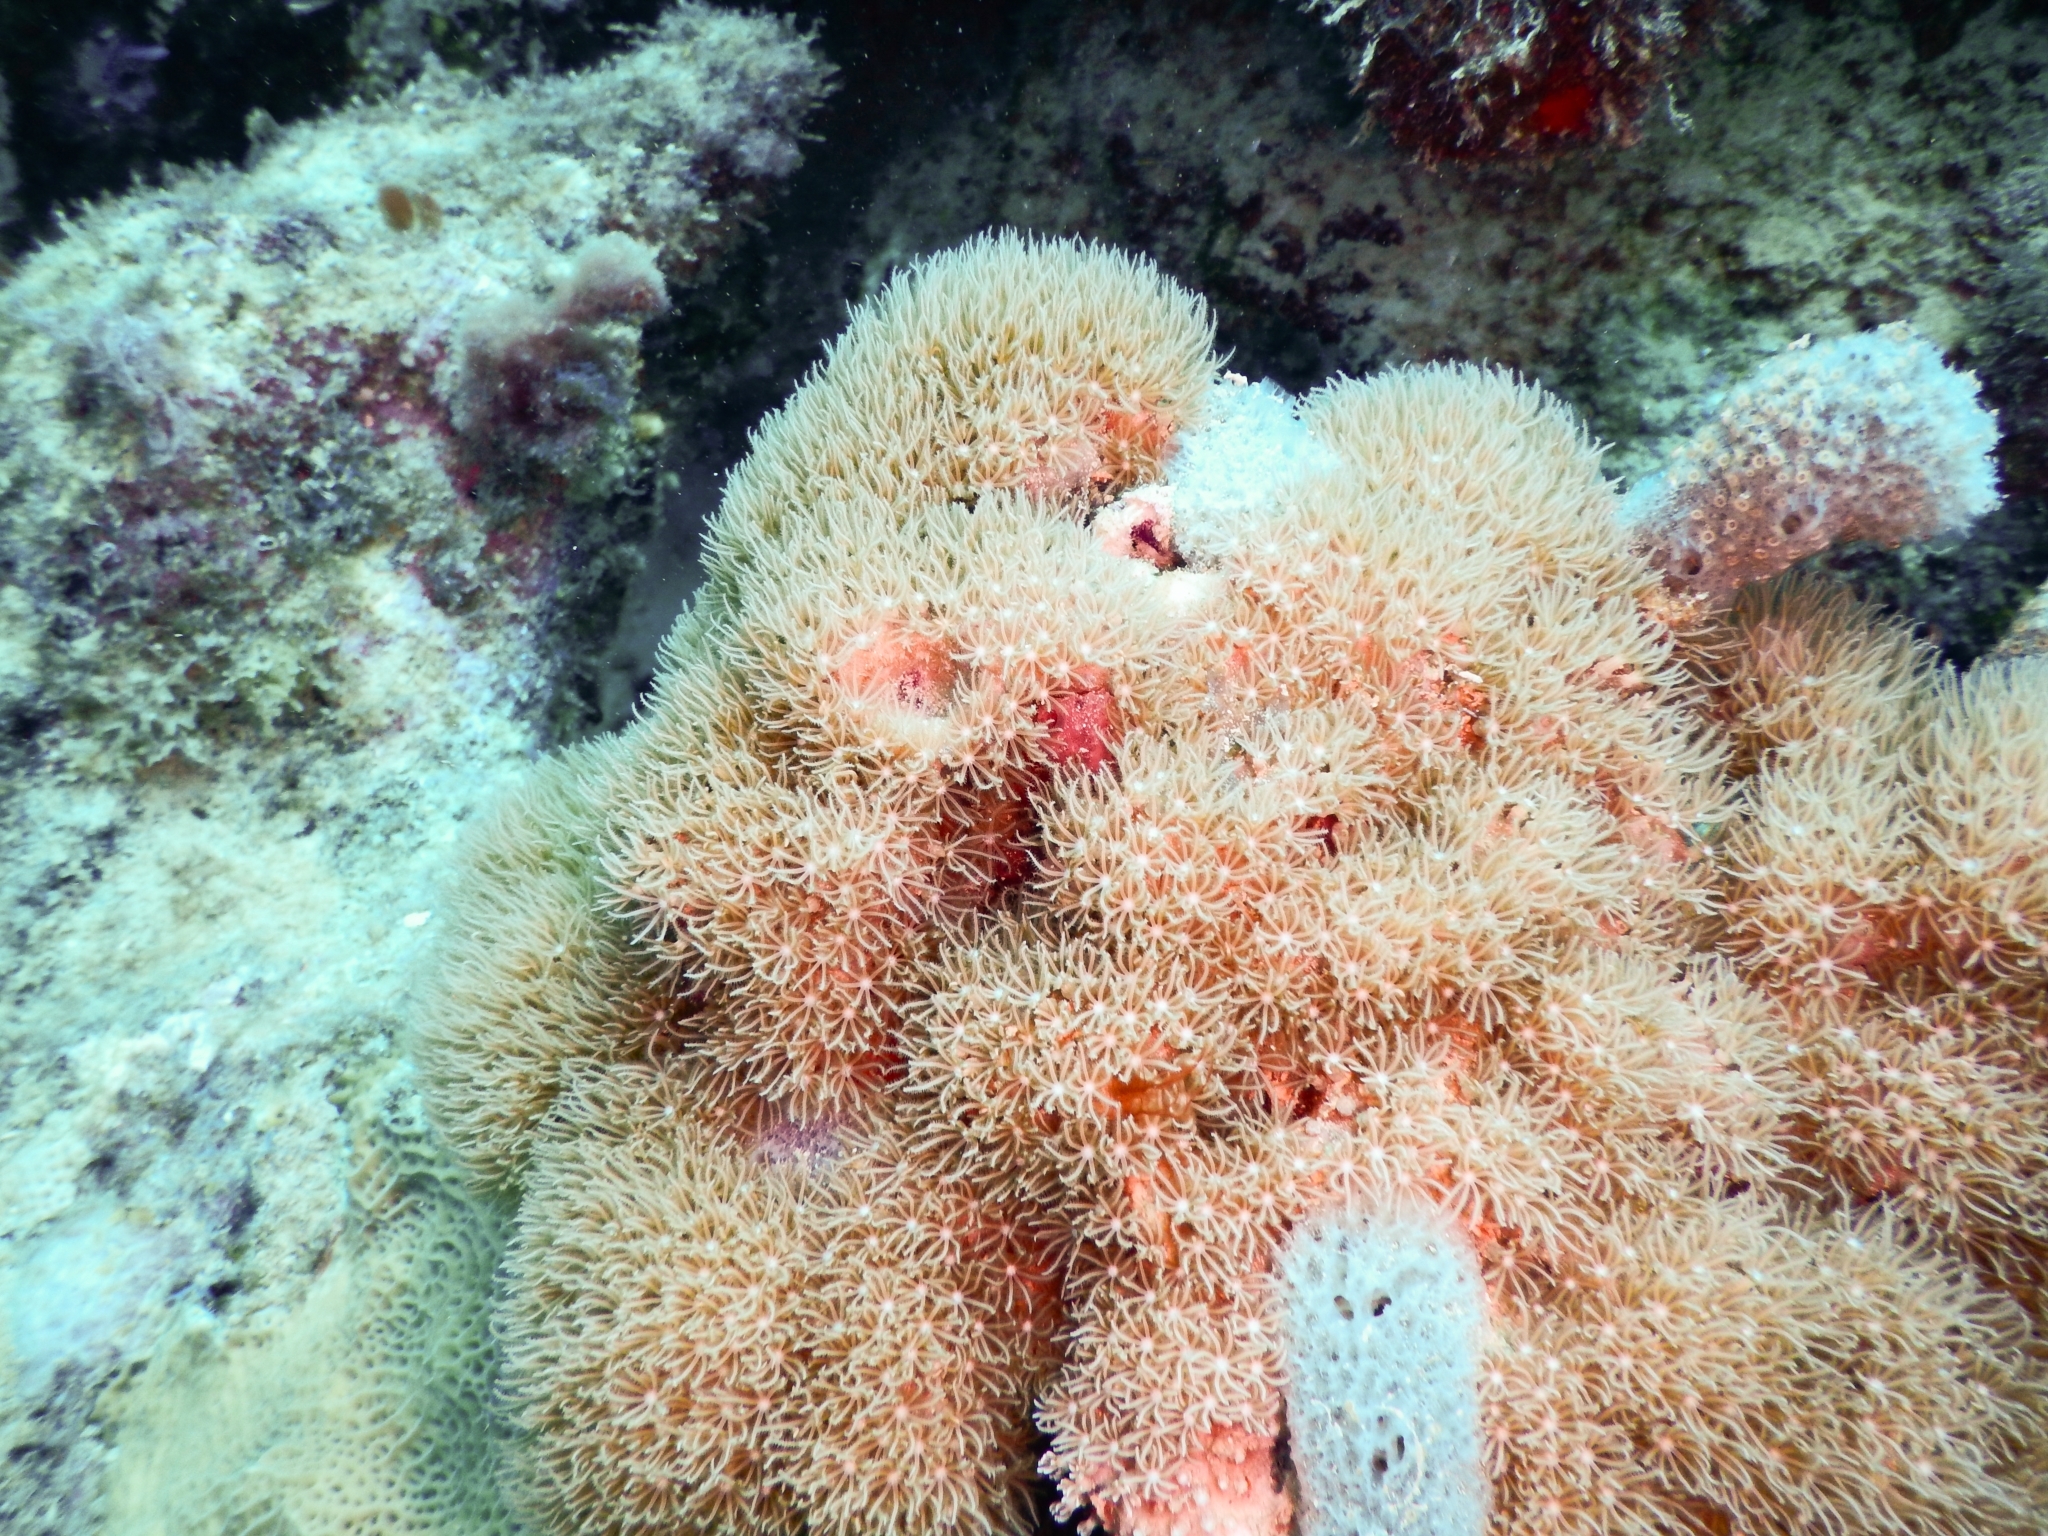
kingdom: Animalia
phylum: Cnidaria
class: Anthozoa
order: Scleralcyonacea
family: Erythropodiidae
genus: Erythropodium
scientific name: Erythropodium caribaeorum
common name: Encrusting gorgonian
